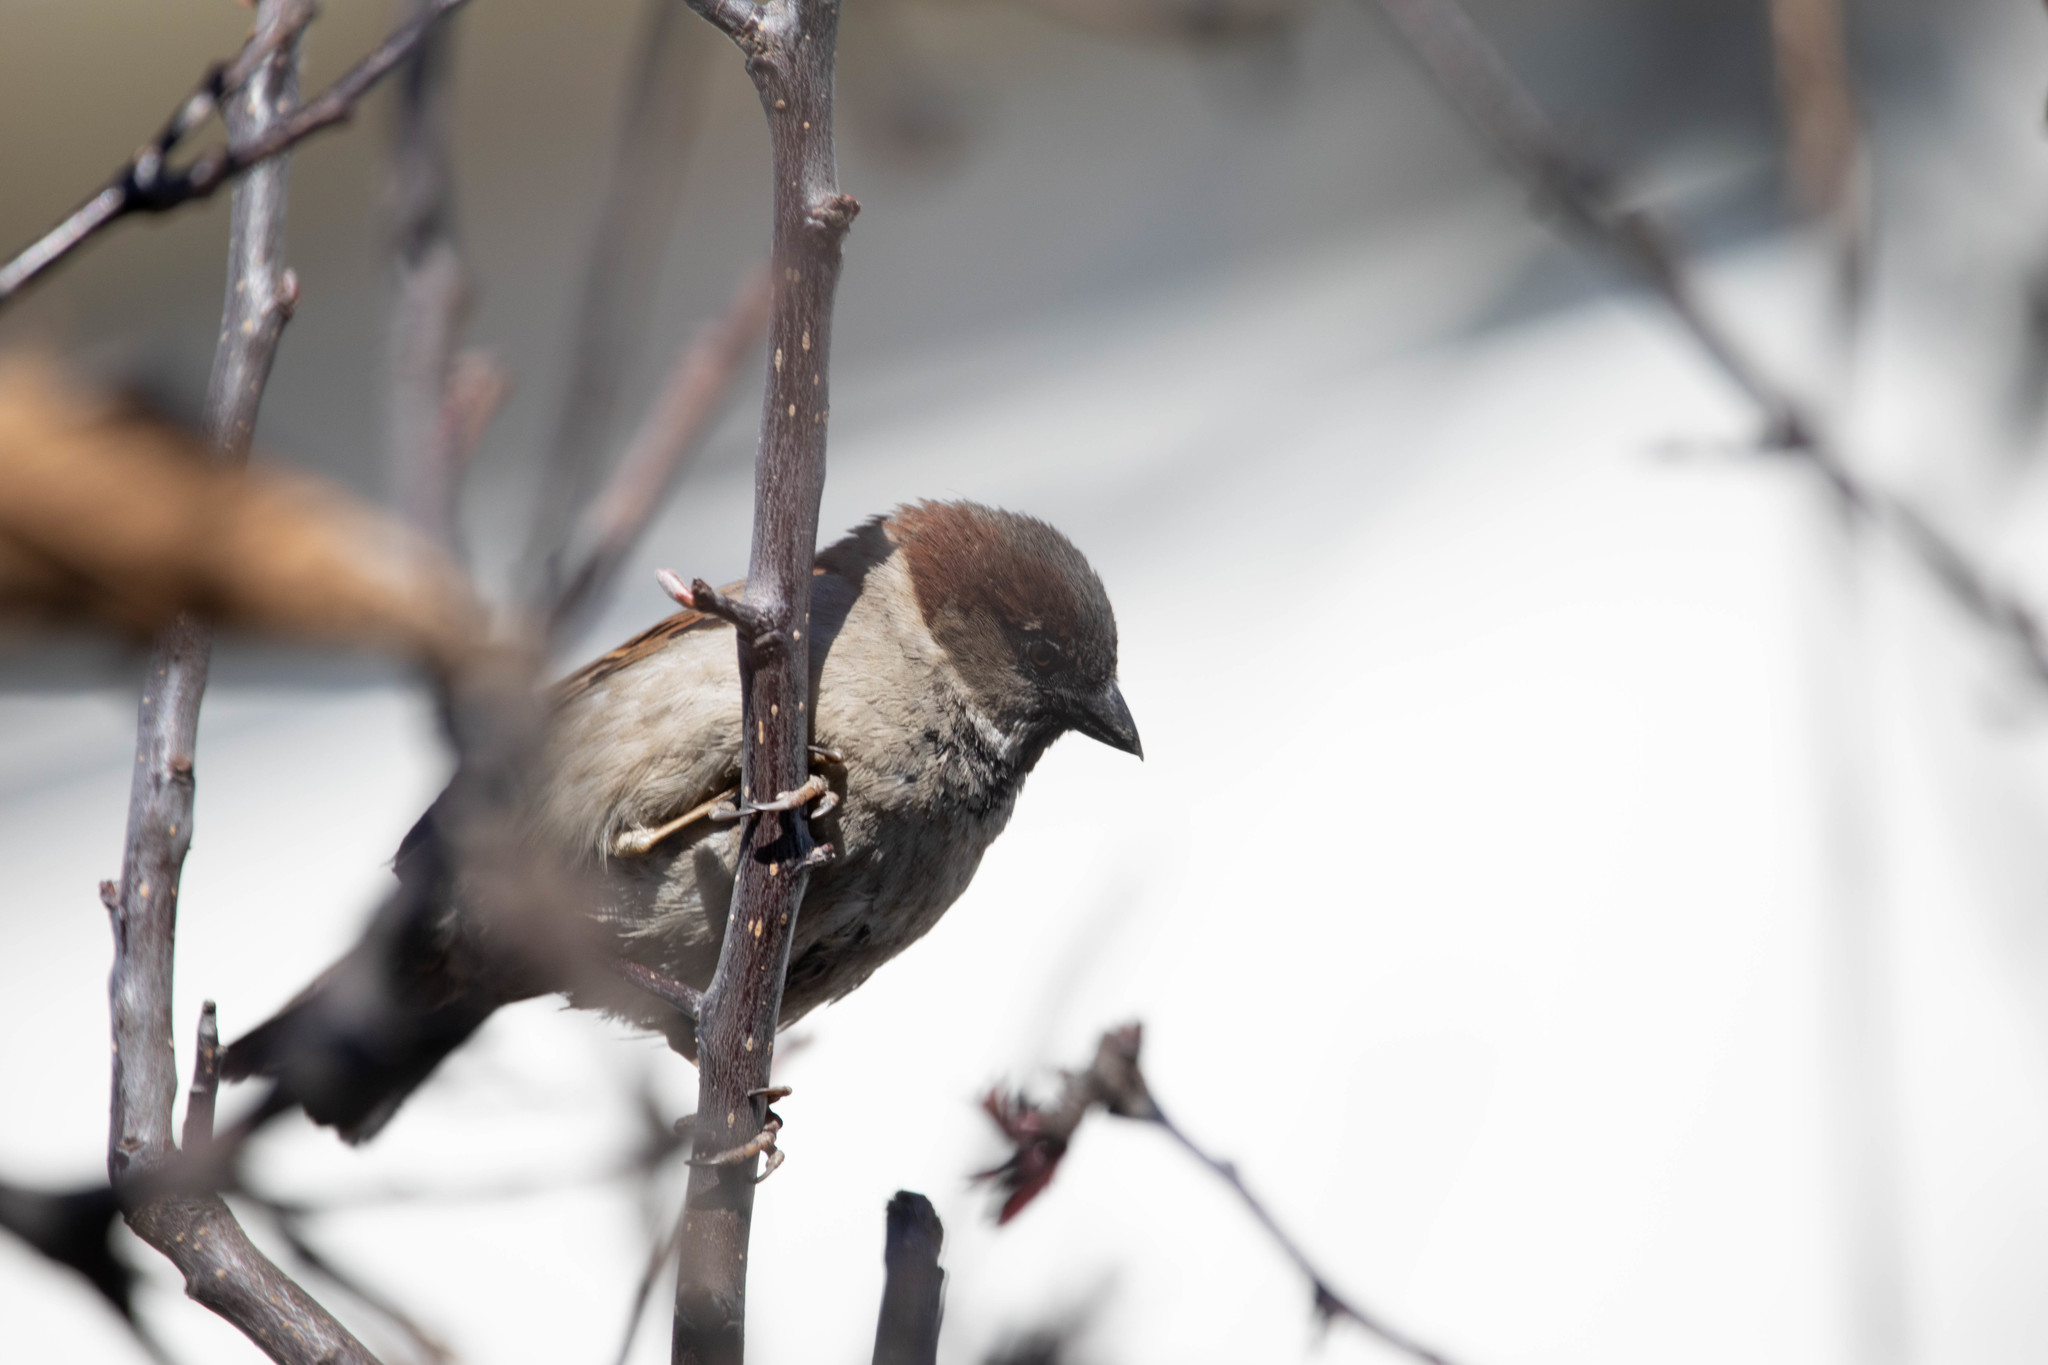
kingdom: Animalia
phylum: Chordata
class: Aves
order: Passeriformes
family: Passeridae
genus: Passer
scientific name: Passer domesticus
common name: House sparrow
